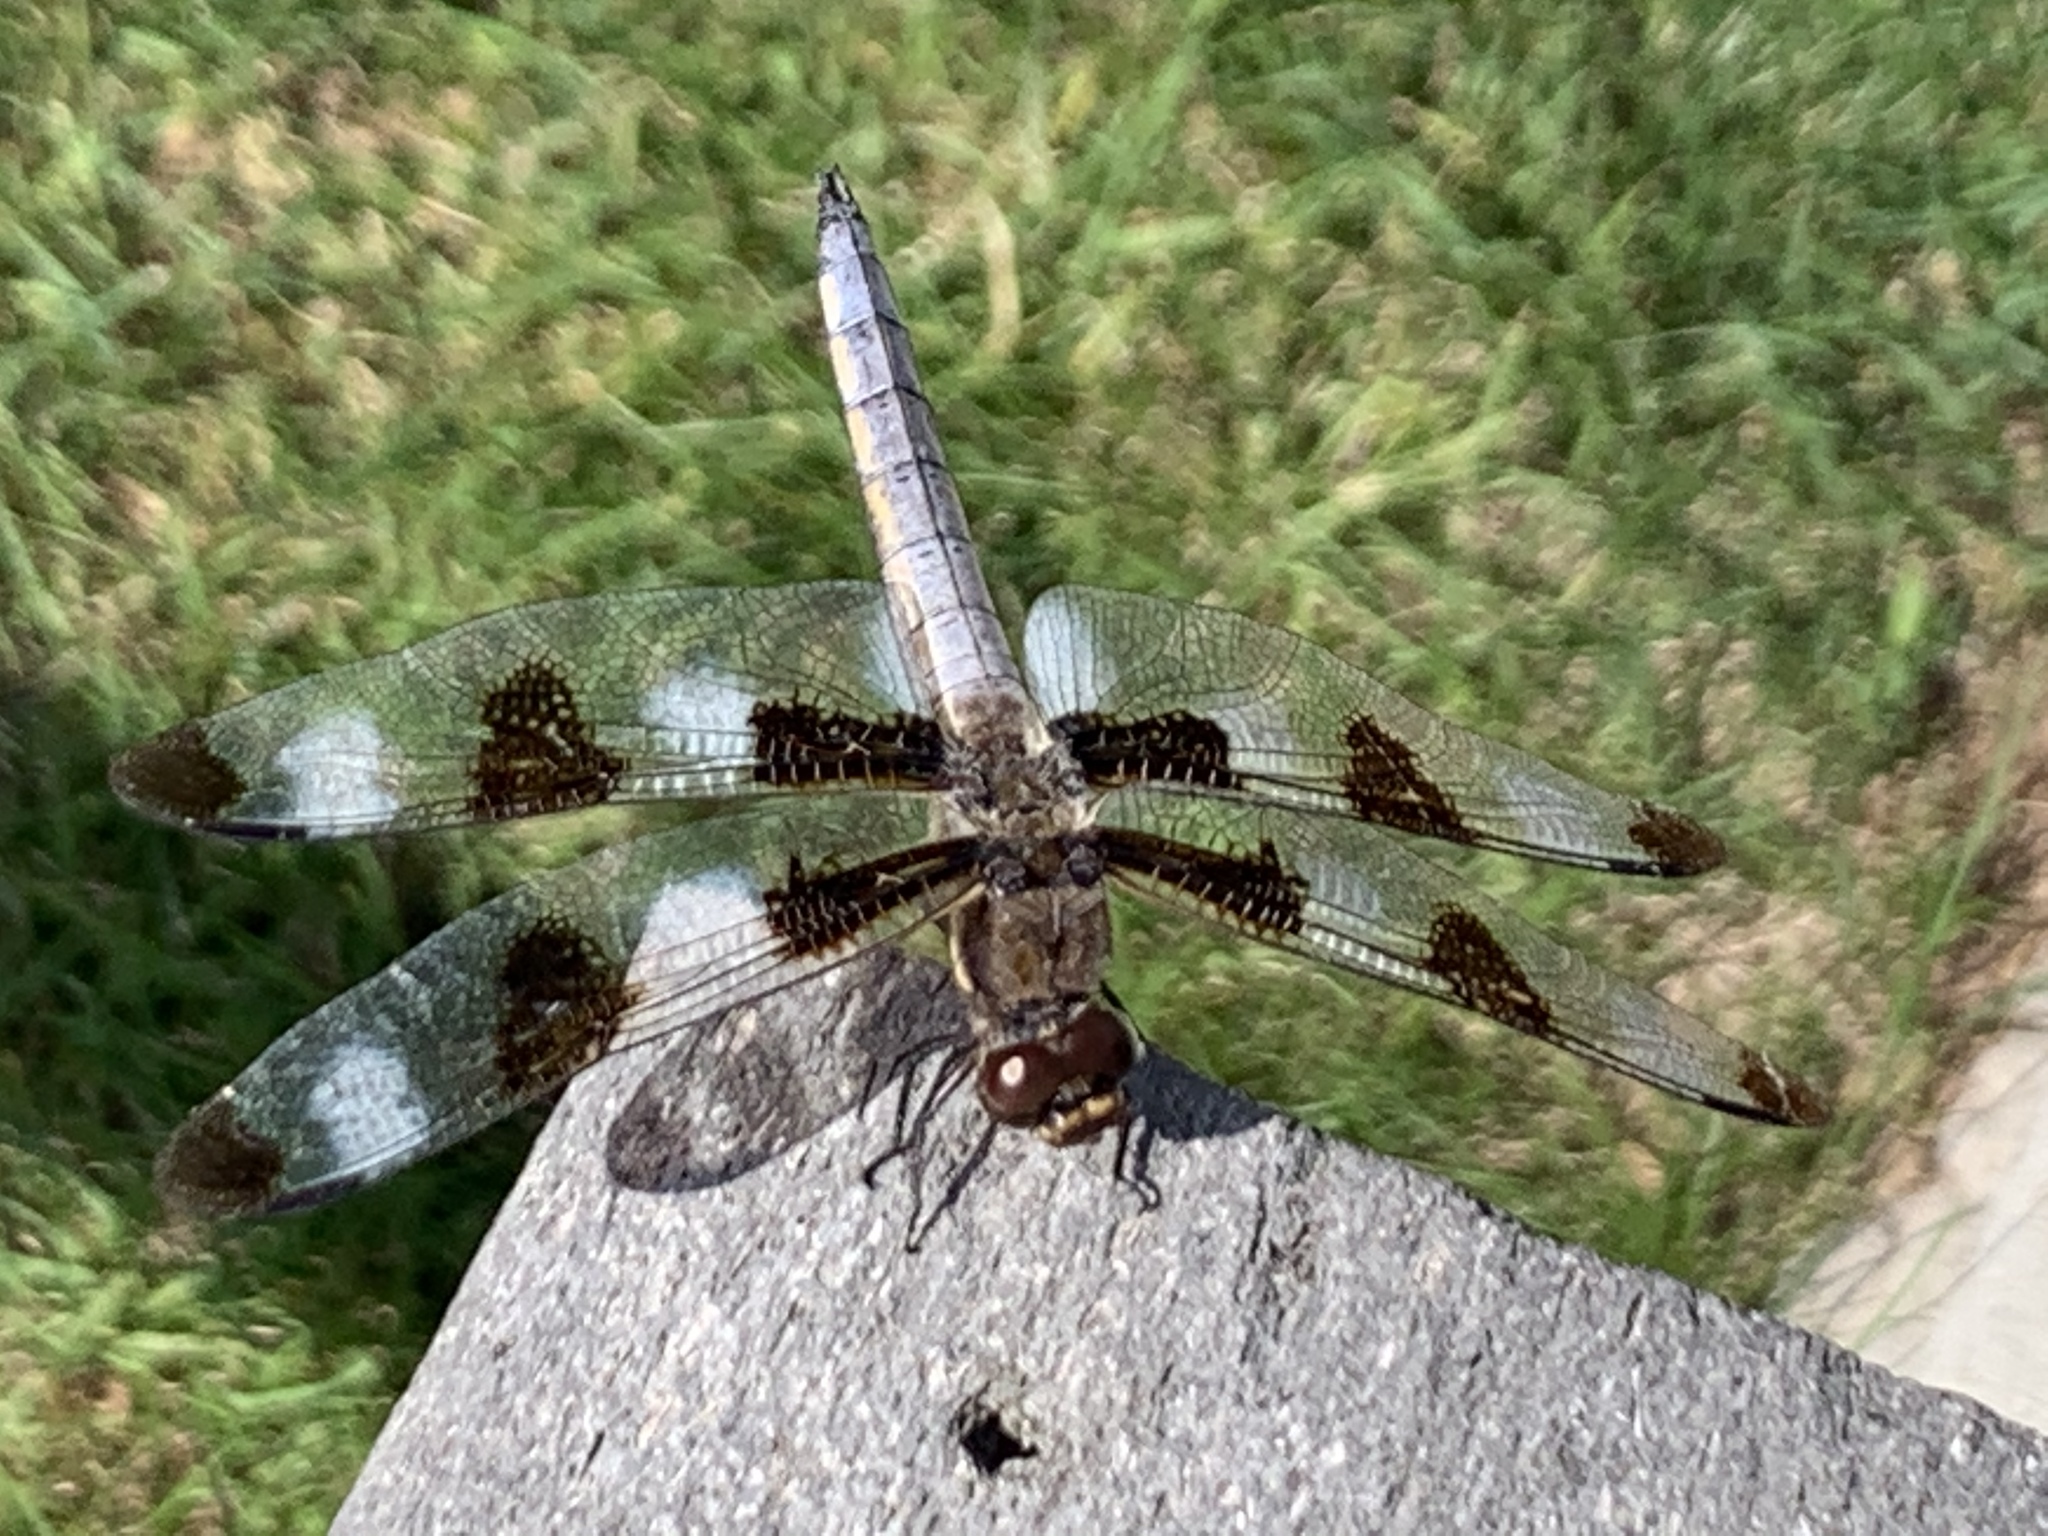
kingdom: Animalia
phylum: Arthropoda
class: Insecta
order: Odonata
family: Libellulidae
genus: Libellula
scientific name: Libellula pulchella
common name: Twelve-spotted skimmer
